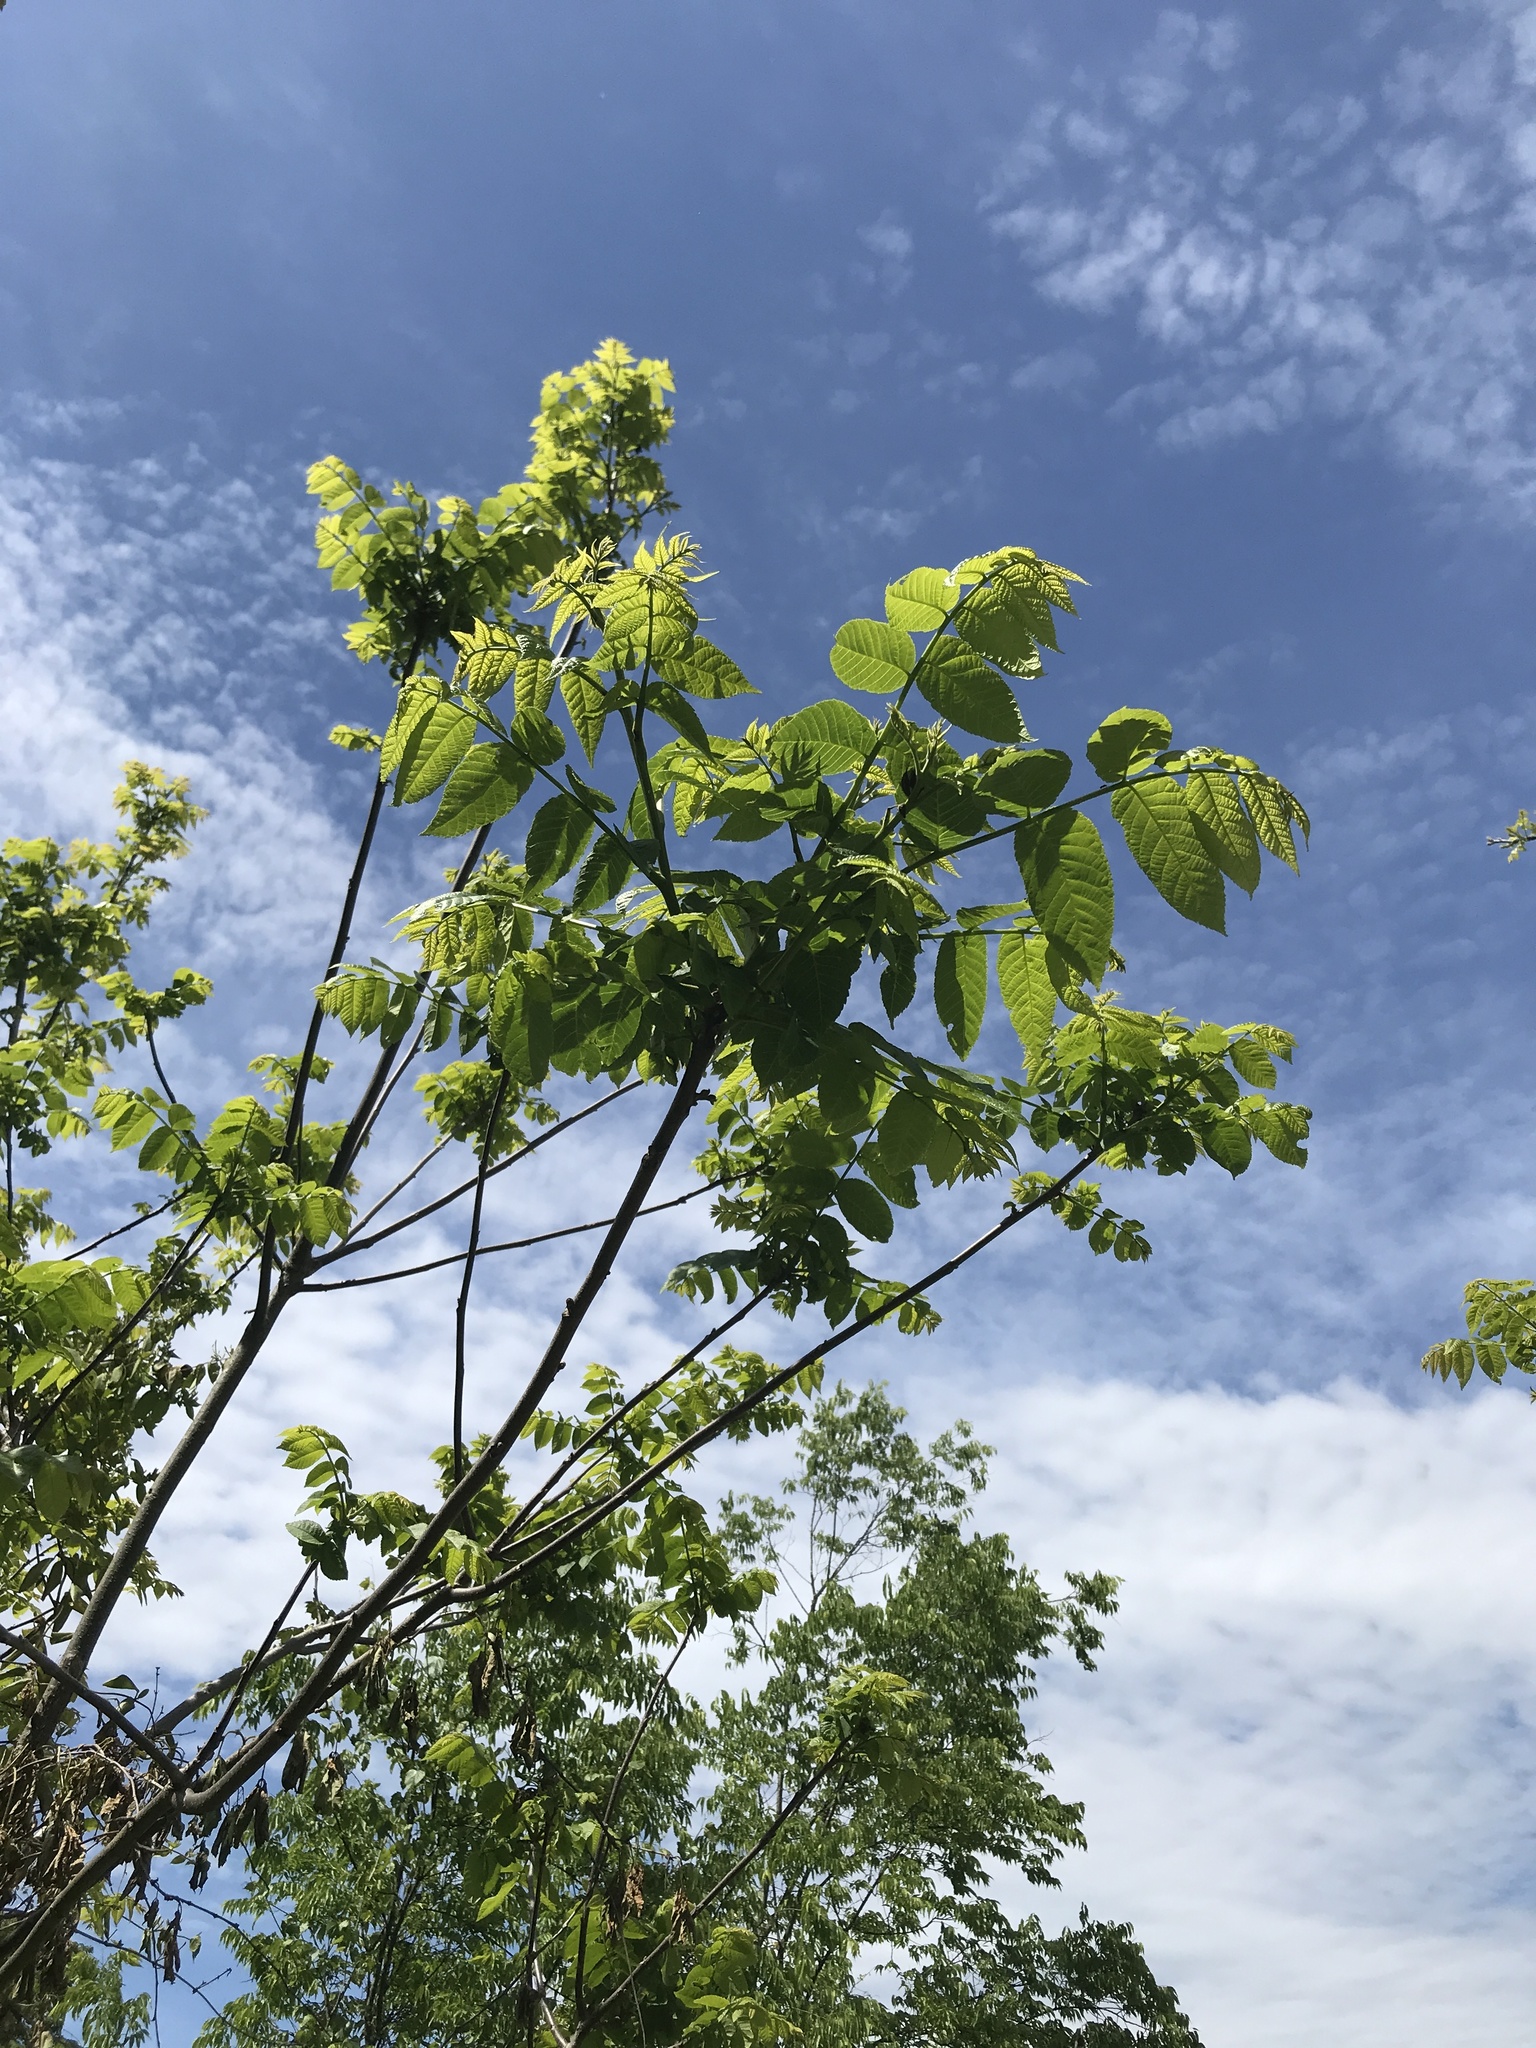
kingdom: Plantae
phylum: Tracheophyta
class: Magnoliopsida
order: Fagales
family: Juglandaceae
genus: Juglans
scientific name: Juglans nigra
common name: Black walnut
